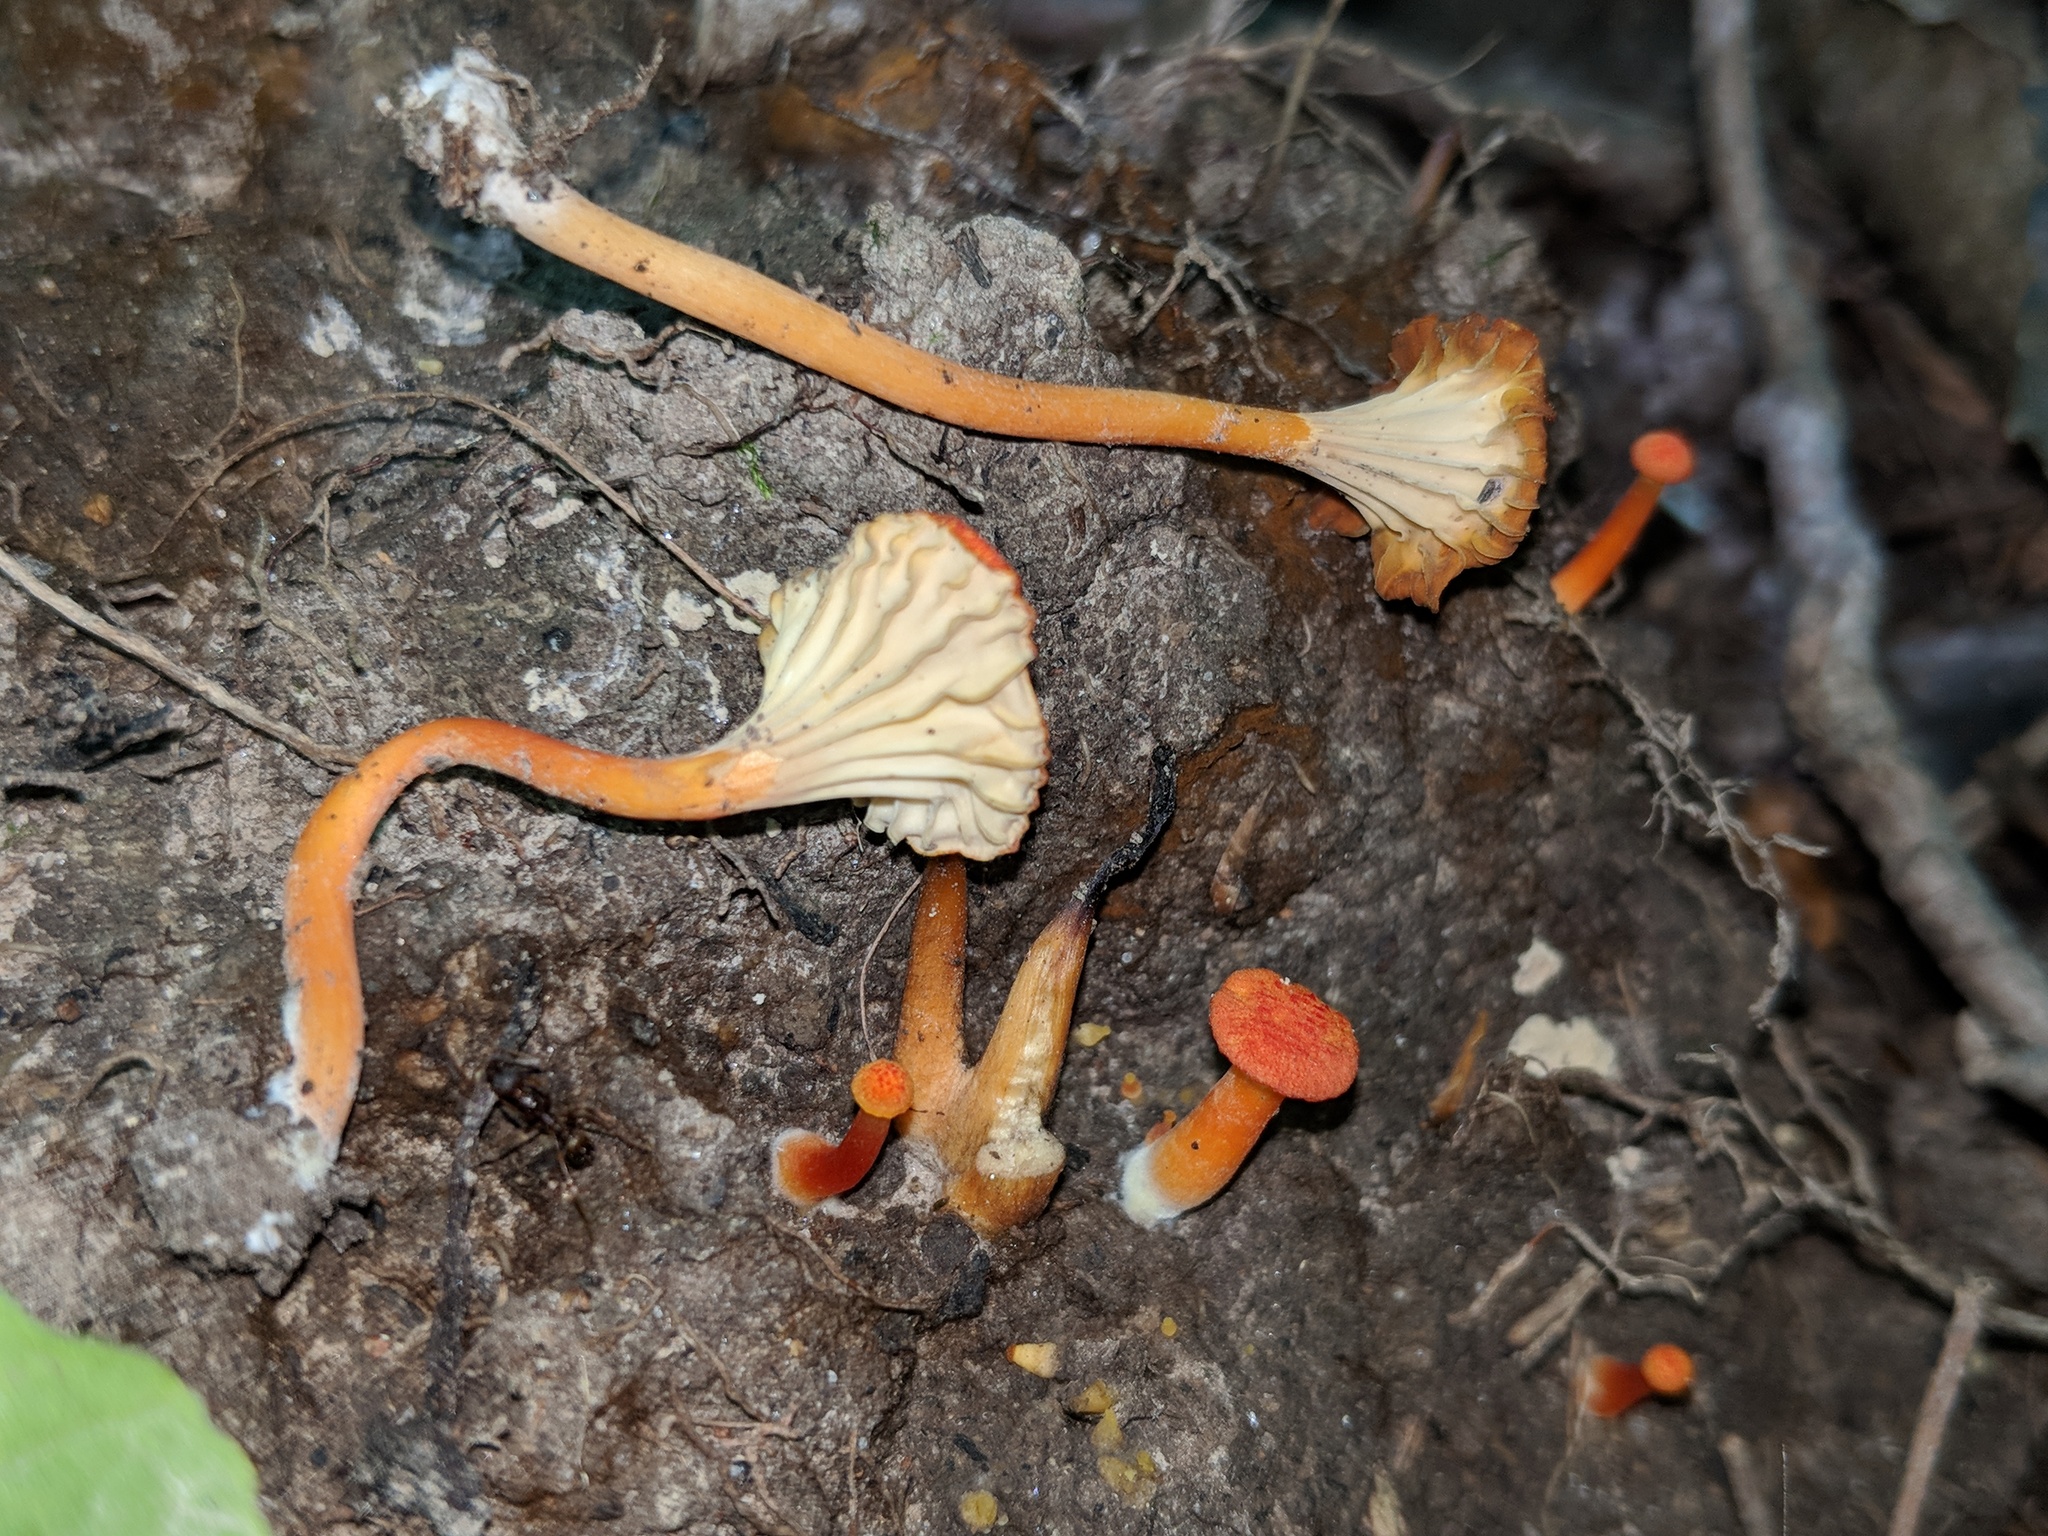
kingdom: Fungi
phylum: Basidiomycota
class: Agaricomycetes
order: Agaricales
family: Hygrophoraceae
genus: Hygrocybe
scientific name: Hygrocybe cantharellus
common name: Goblet waxcap
